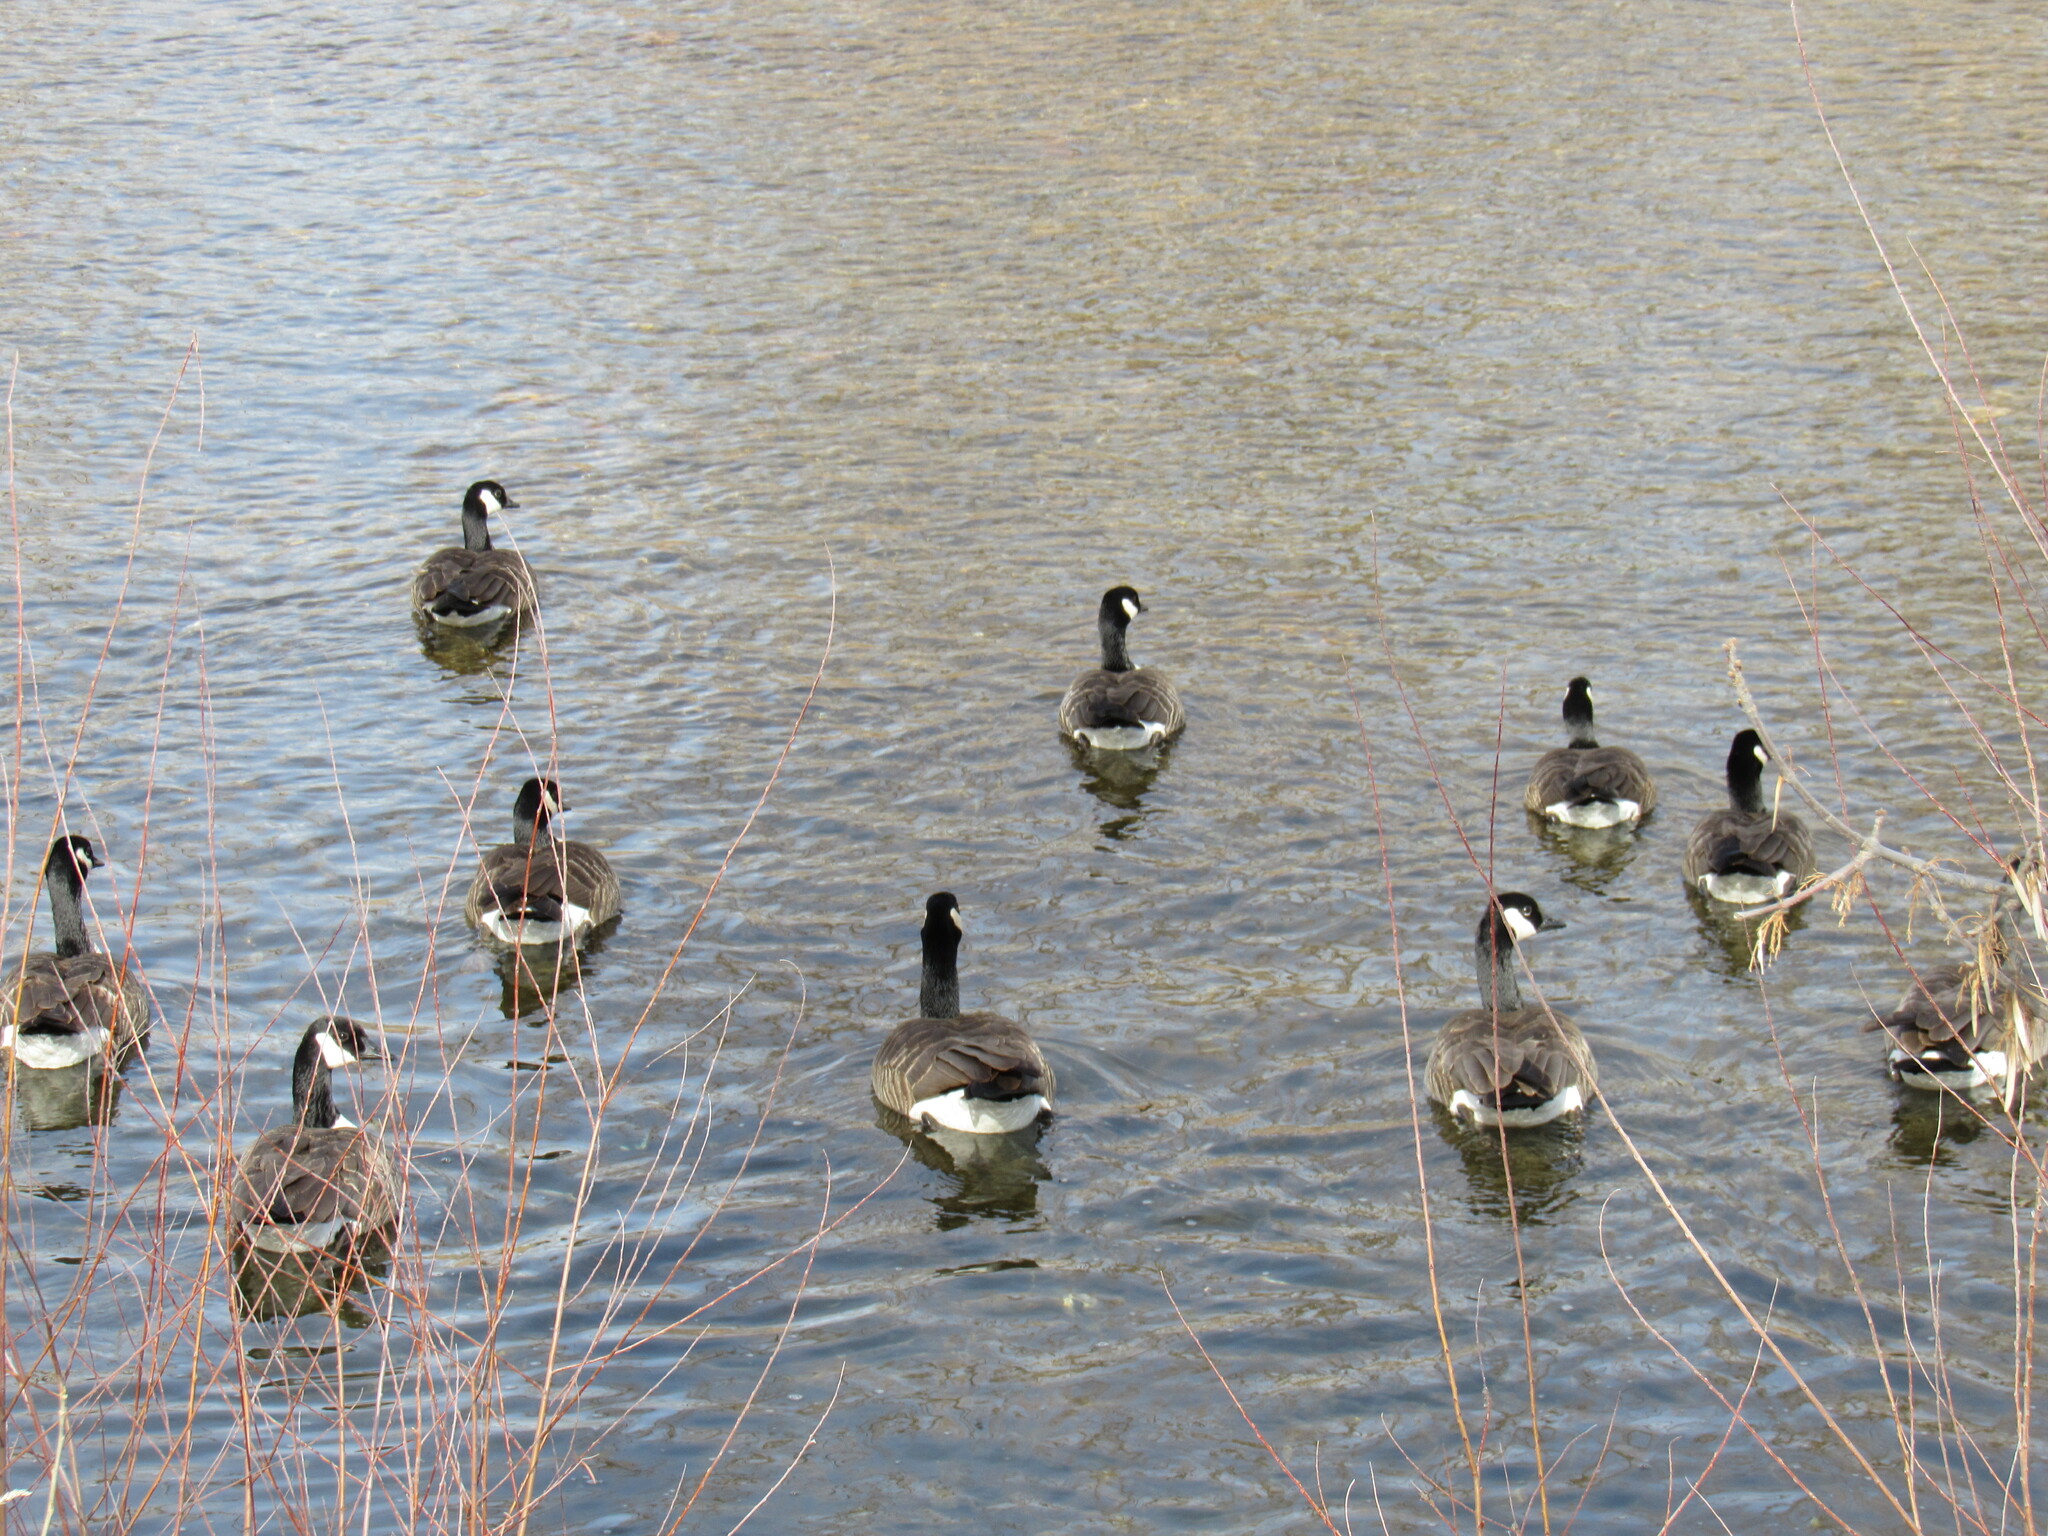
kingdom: Animalia
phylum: Chordata
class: Aves
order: Anseriformes
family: Anatidae
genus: Branta
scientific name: Branta canadensis
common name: Canada goose
